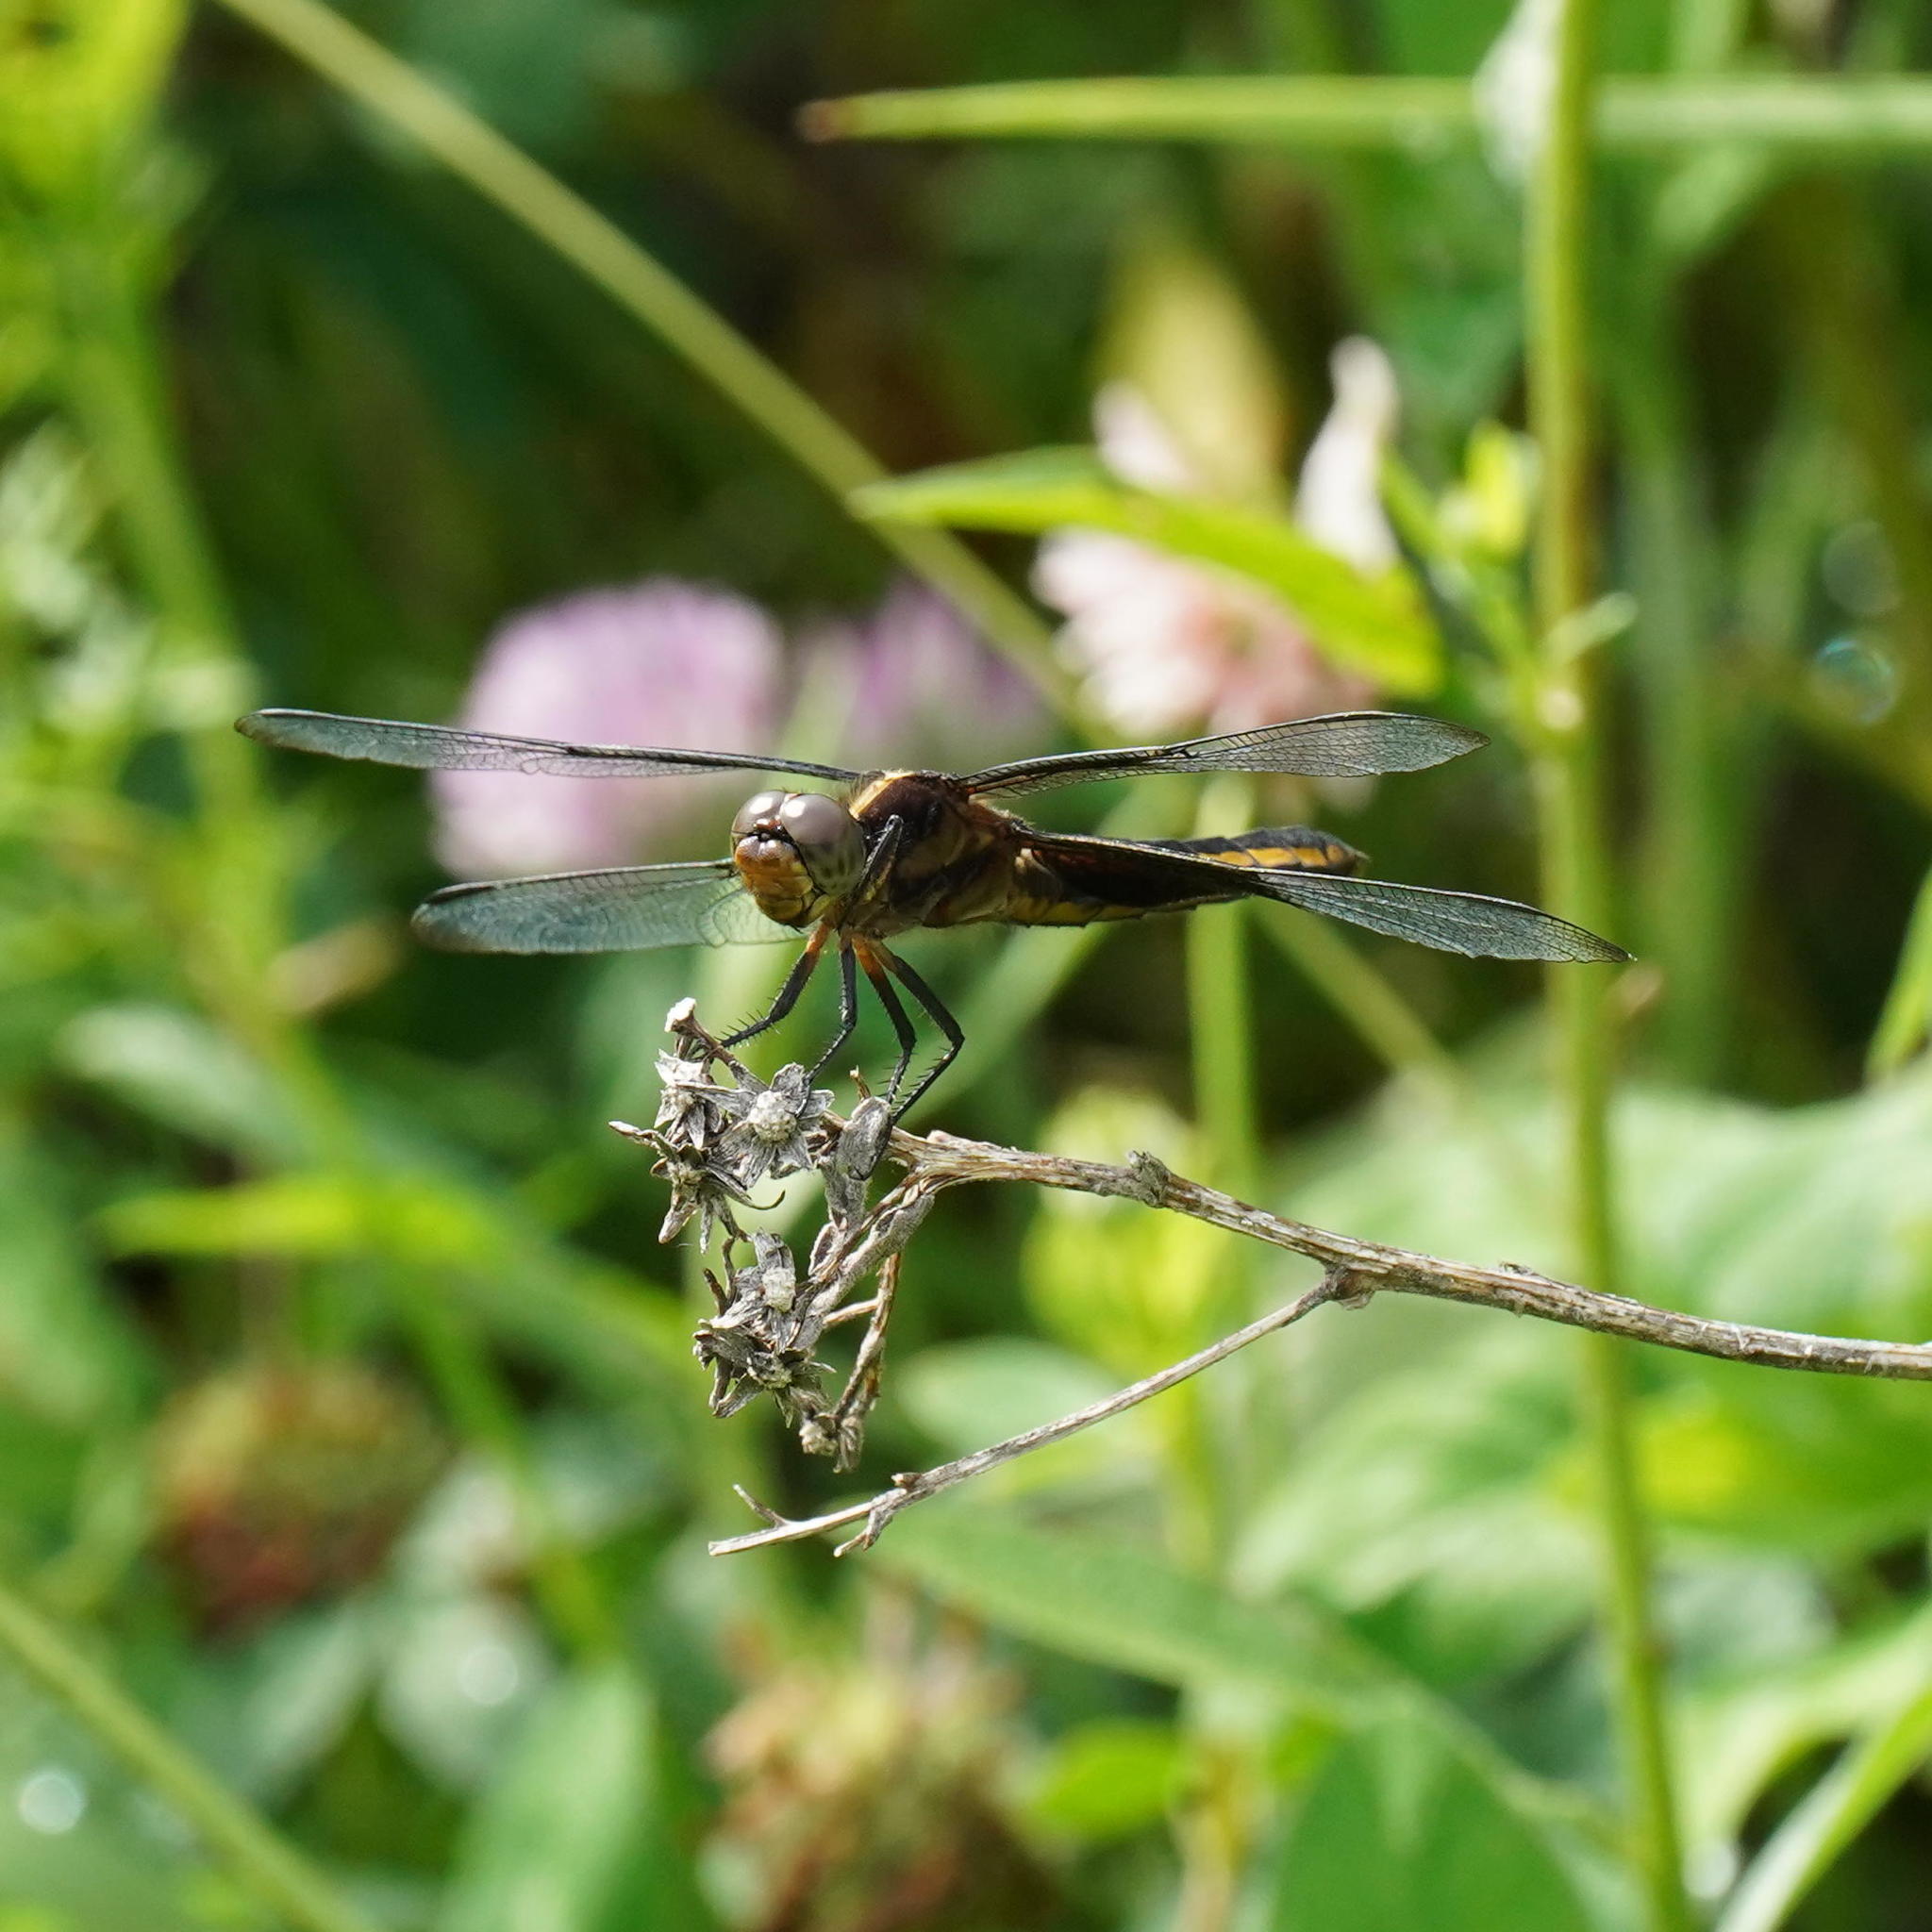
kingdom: Animalia
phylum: Arthropoda
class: Insecta
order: Odonata
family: Libellulidae
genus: Libellula
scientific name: Libellula luctuosa
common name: Widow skimmer
